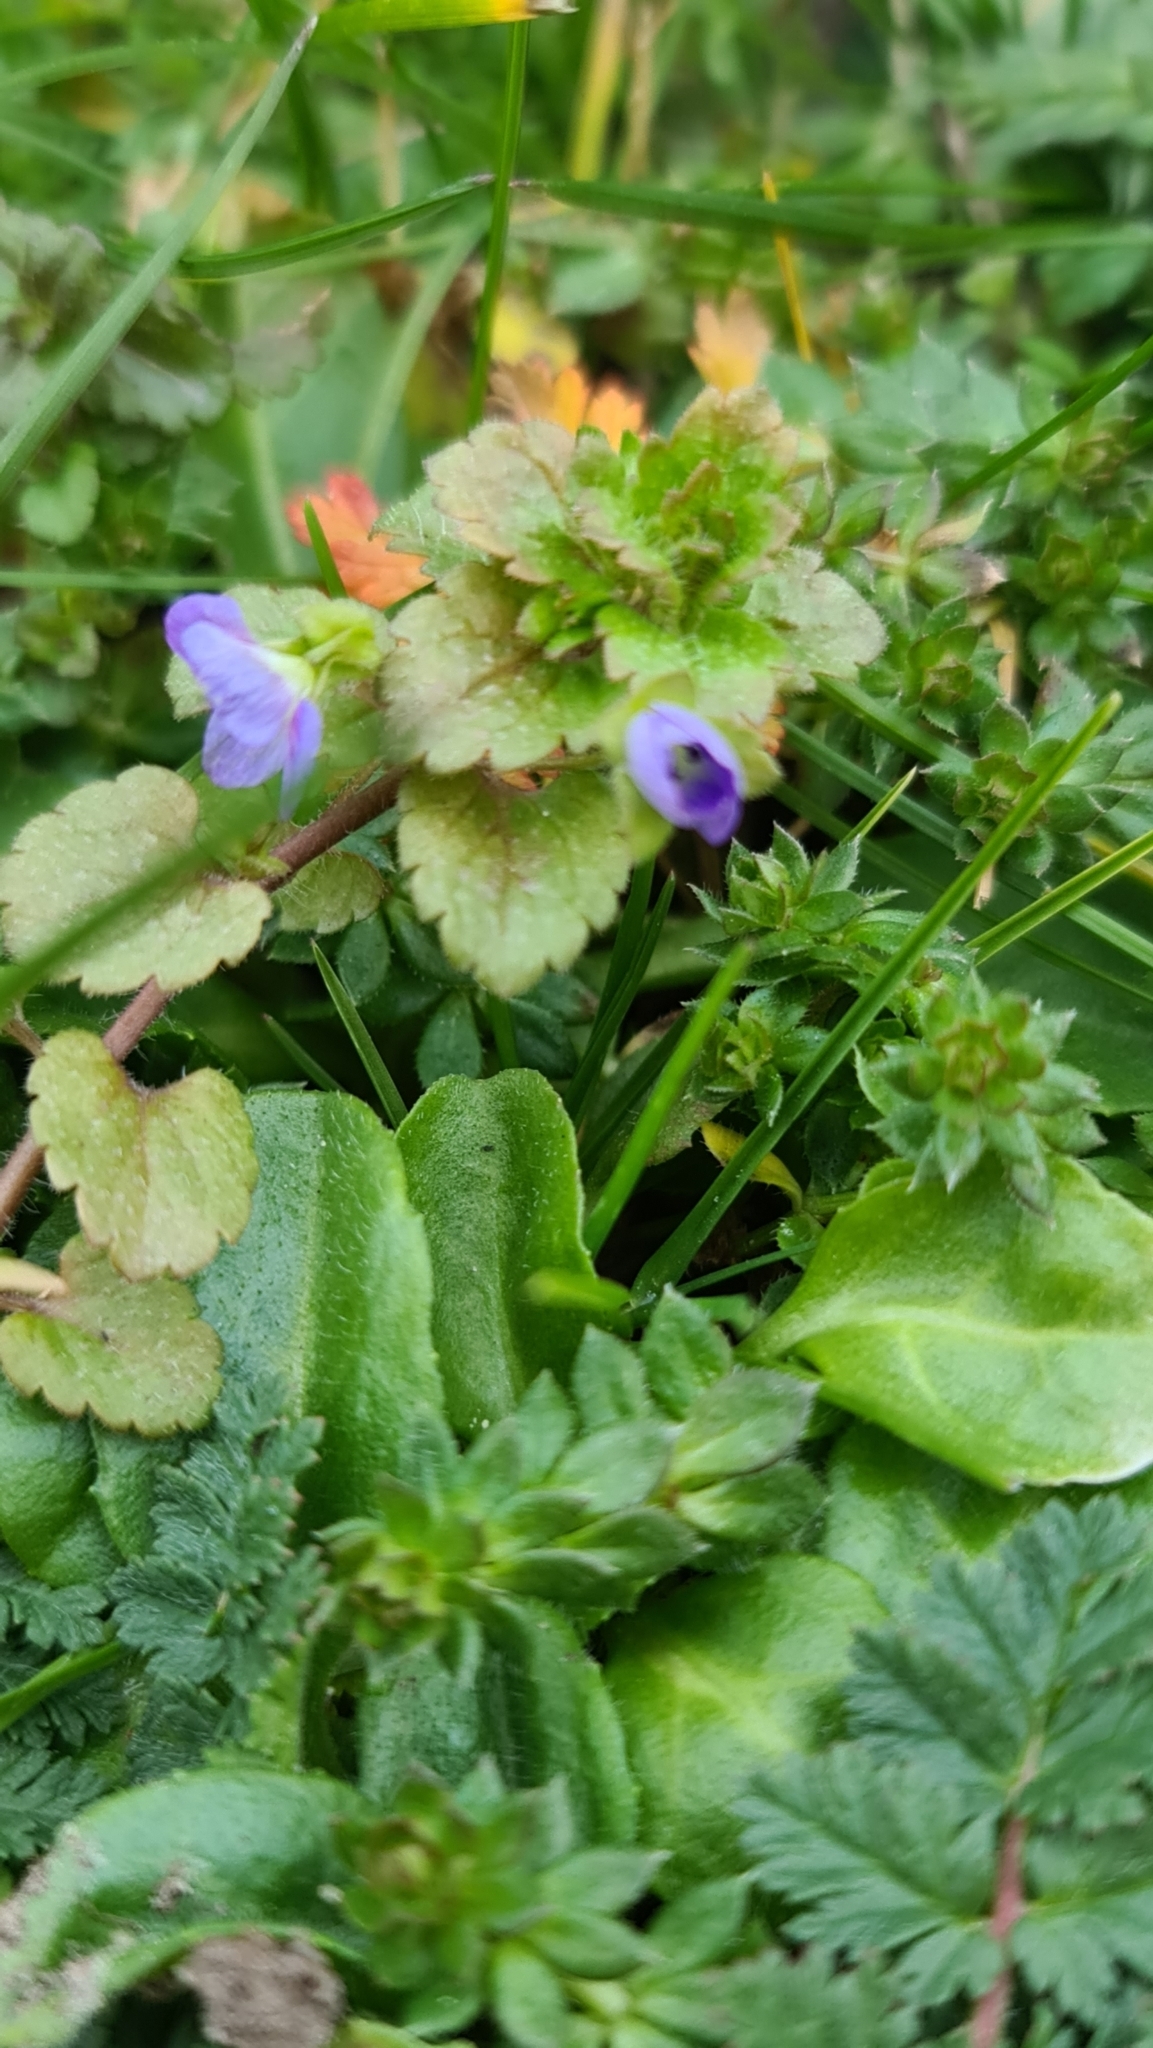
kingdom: Plantae
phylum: Tracheophyta
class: Magnoliopsida
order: Lamiales
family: Plantaginaceae
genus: Veronica
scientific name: Veronica persica
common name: Common field-speedwell
